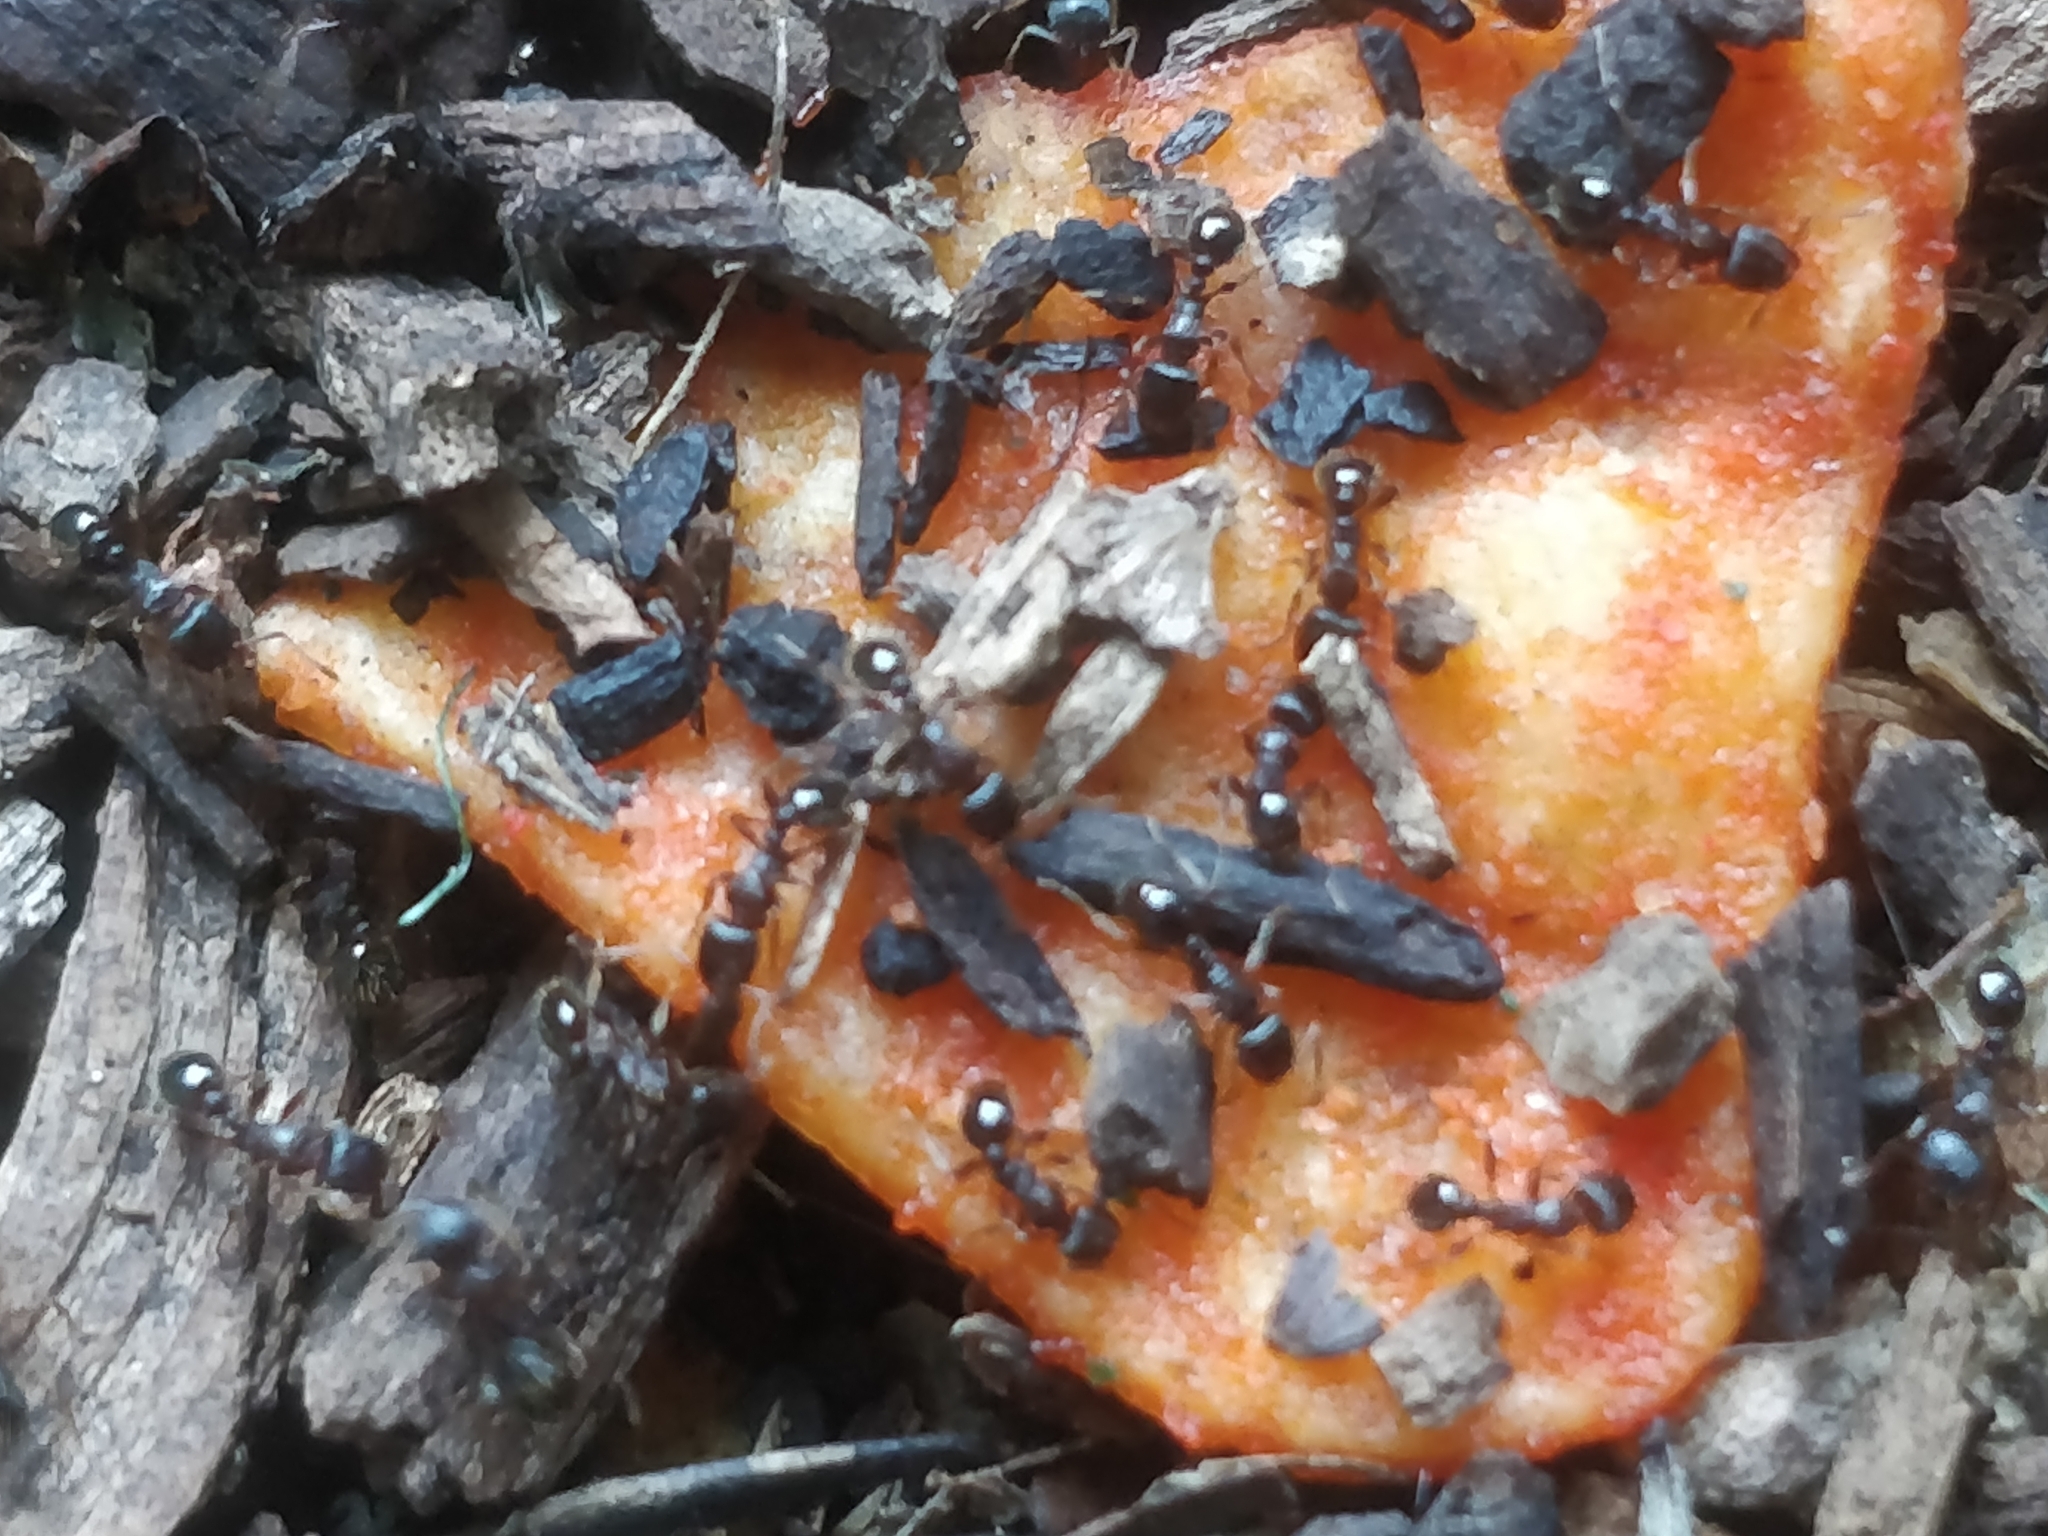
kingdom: Animalia
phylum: Arthropoda
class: Insecta
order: Hymenoptera
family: Formicidae
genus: Tetramorium
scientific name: Tetramorium immigrans
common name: Pavement ant
